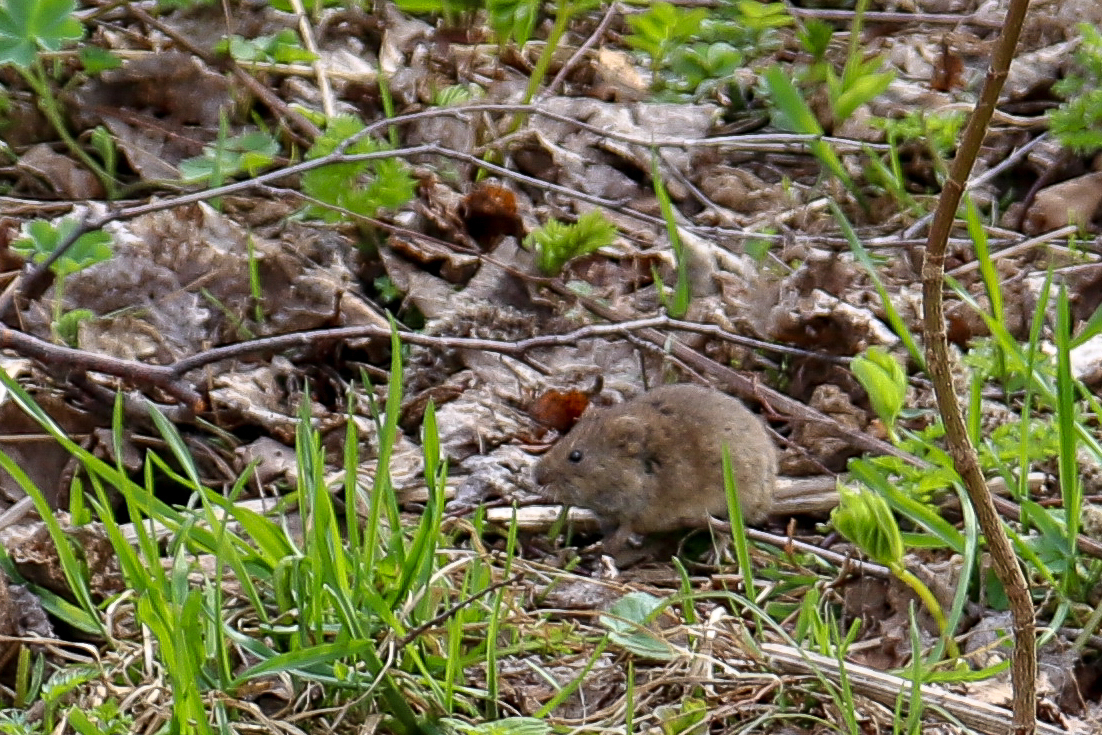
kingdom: Animalia
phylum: Chordata
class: Mammalia
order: Rodentia
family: Muridae
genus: Apodemus
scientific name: Apodemus agrarius
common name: Striped field mouse
